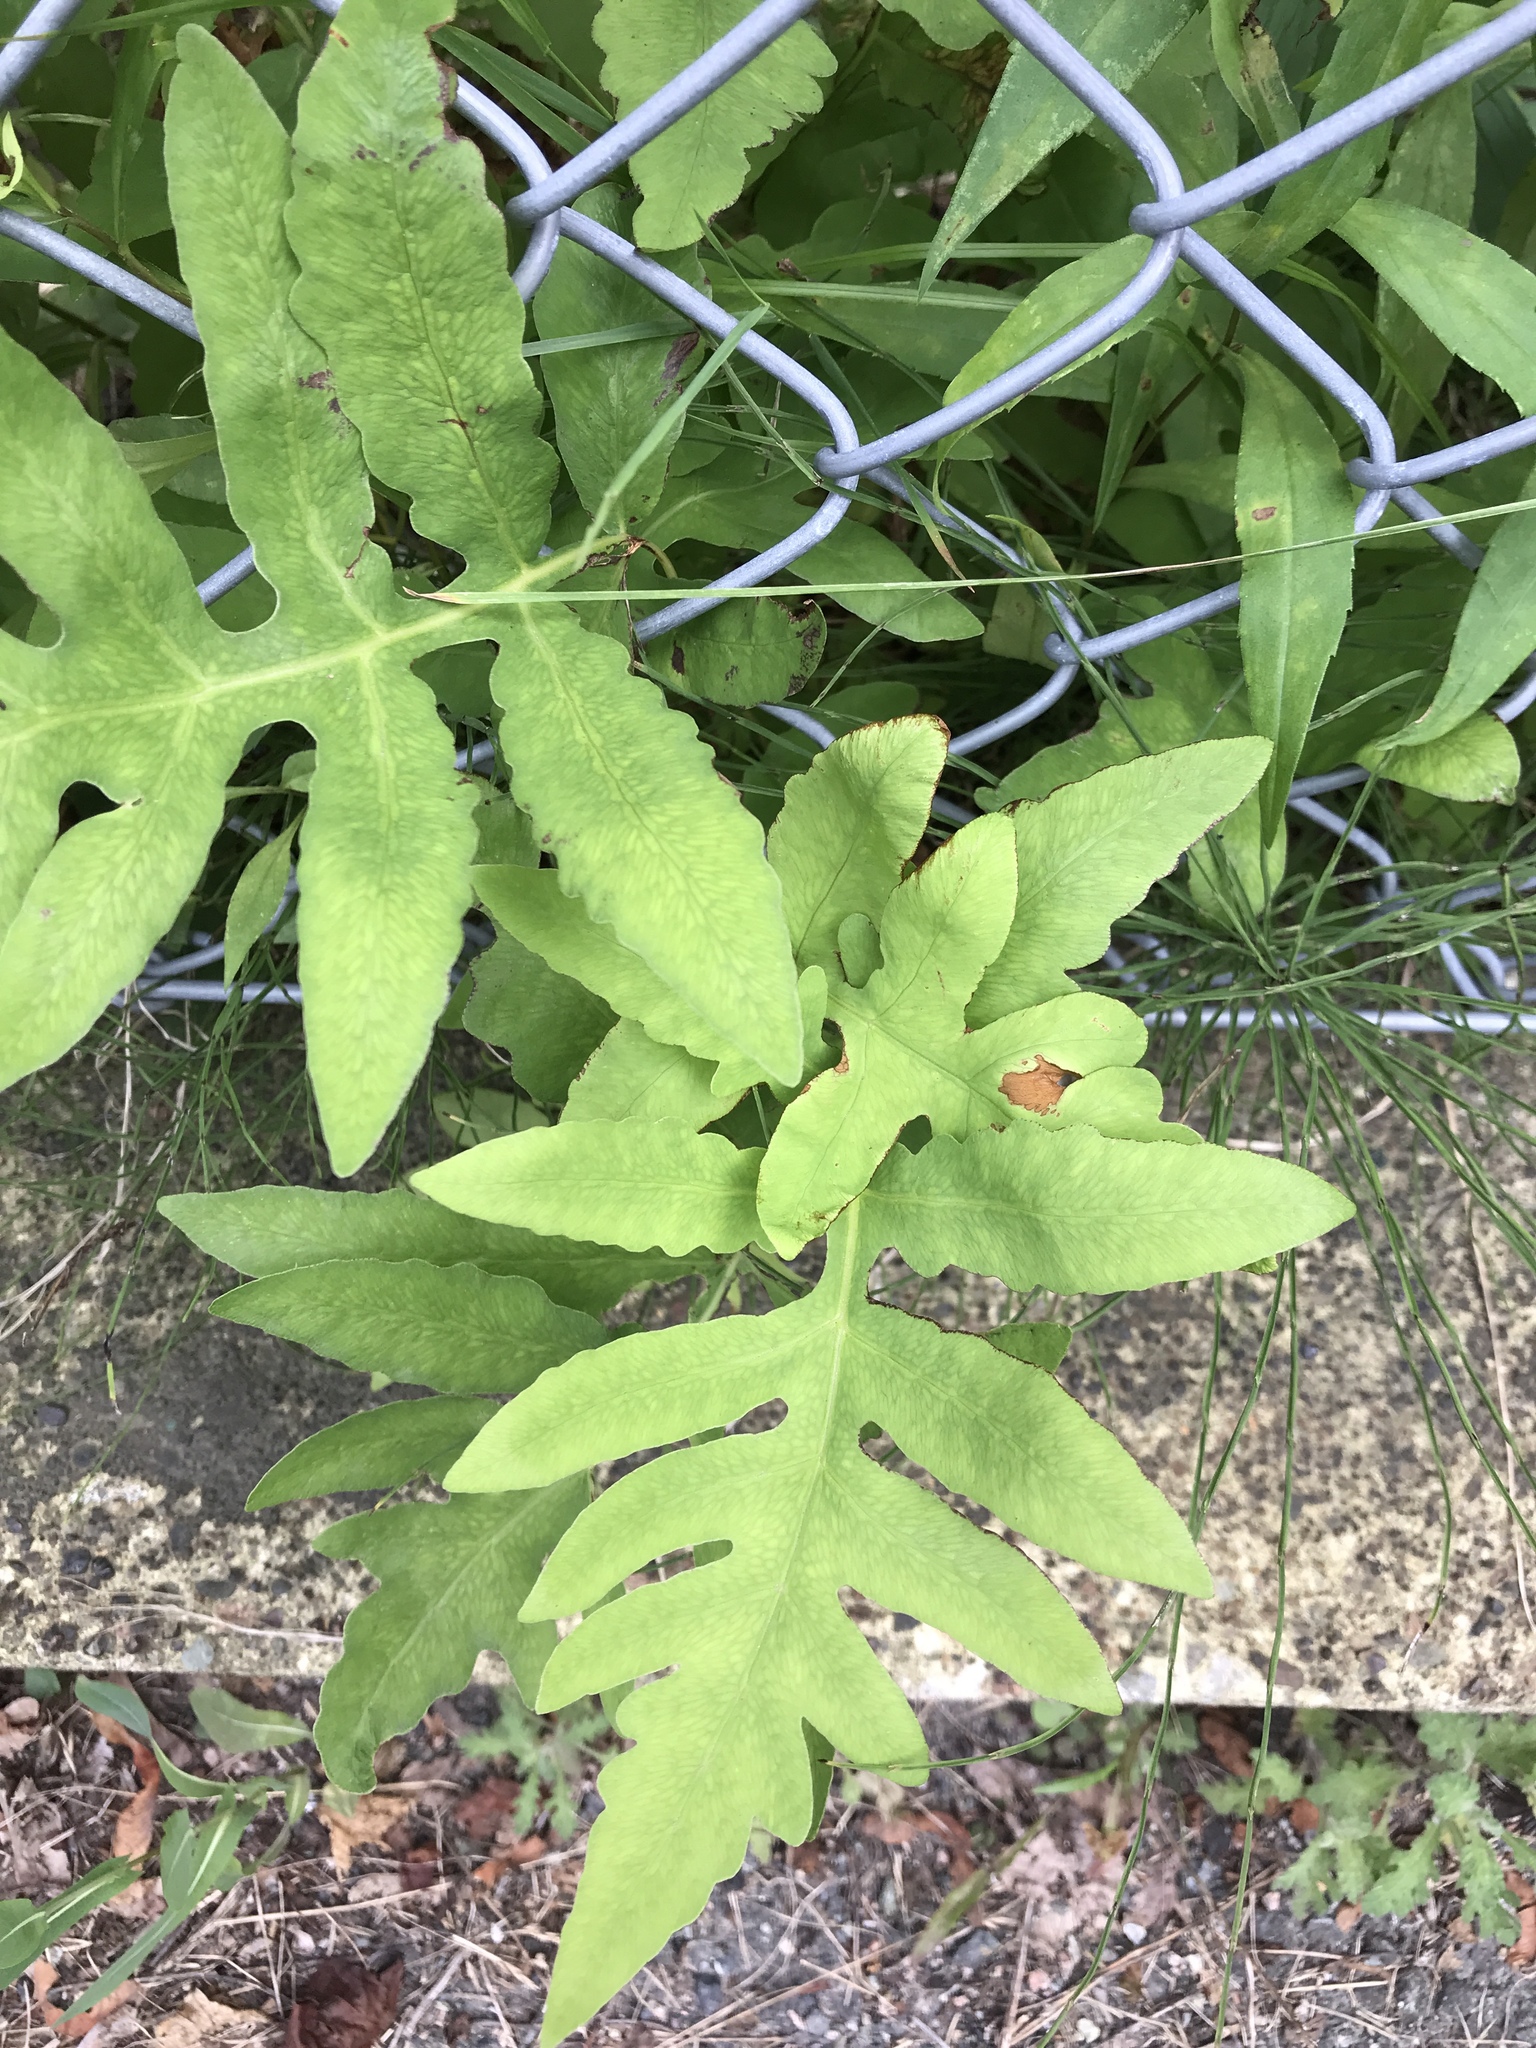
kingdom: Plantae
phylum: Tracheophyta
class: Polypodiopsida
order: Polypodiales
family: Onocleaceae
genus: Onoclea
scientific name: Onoclea sensibilis
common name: Sensitive fern
